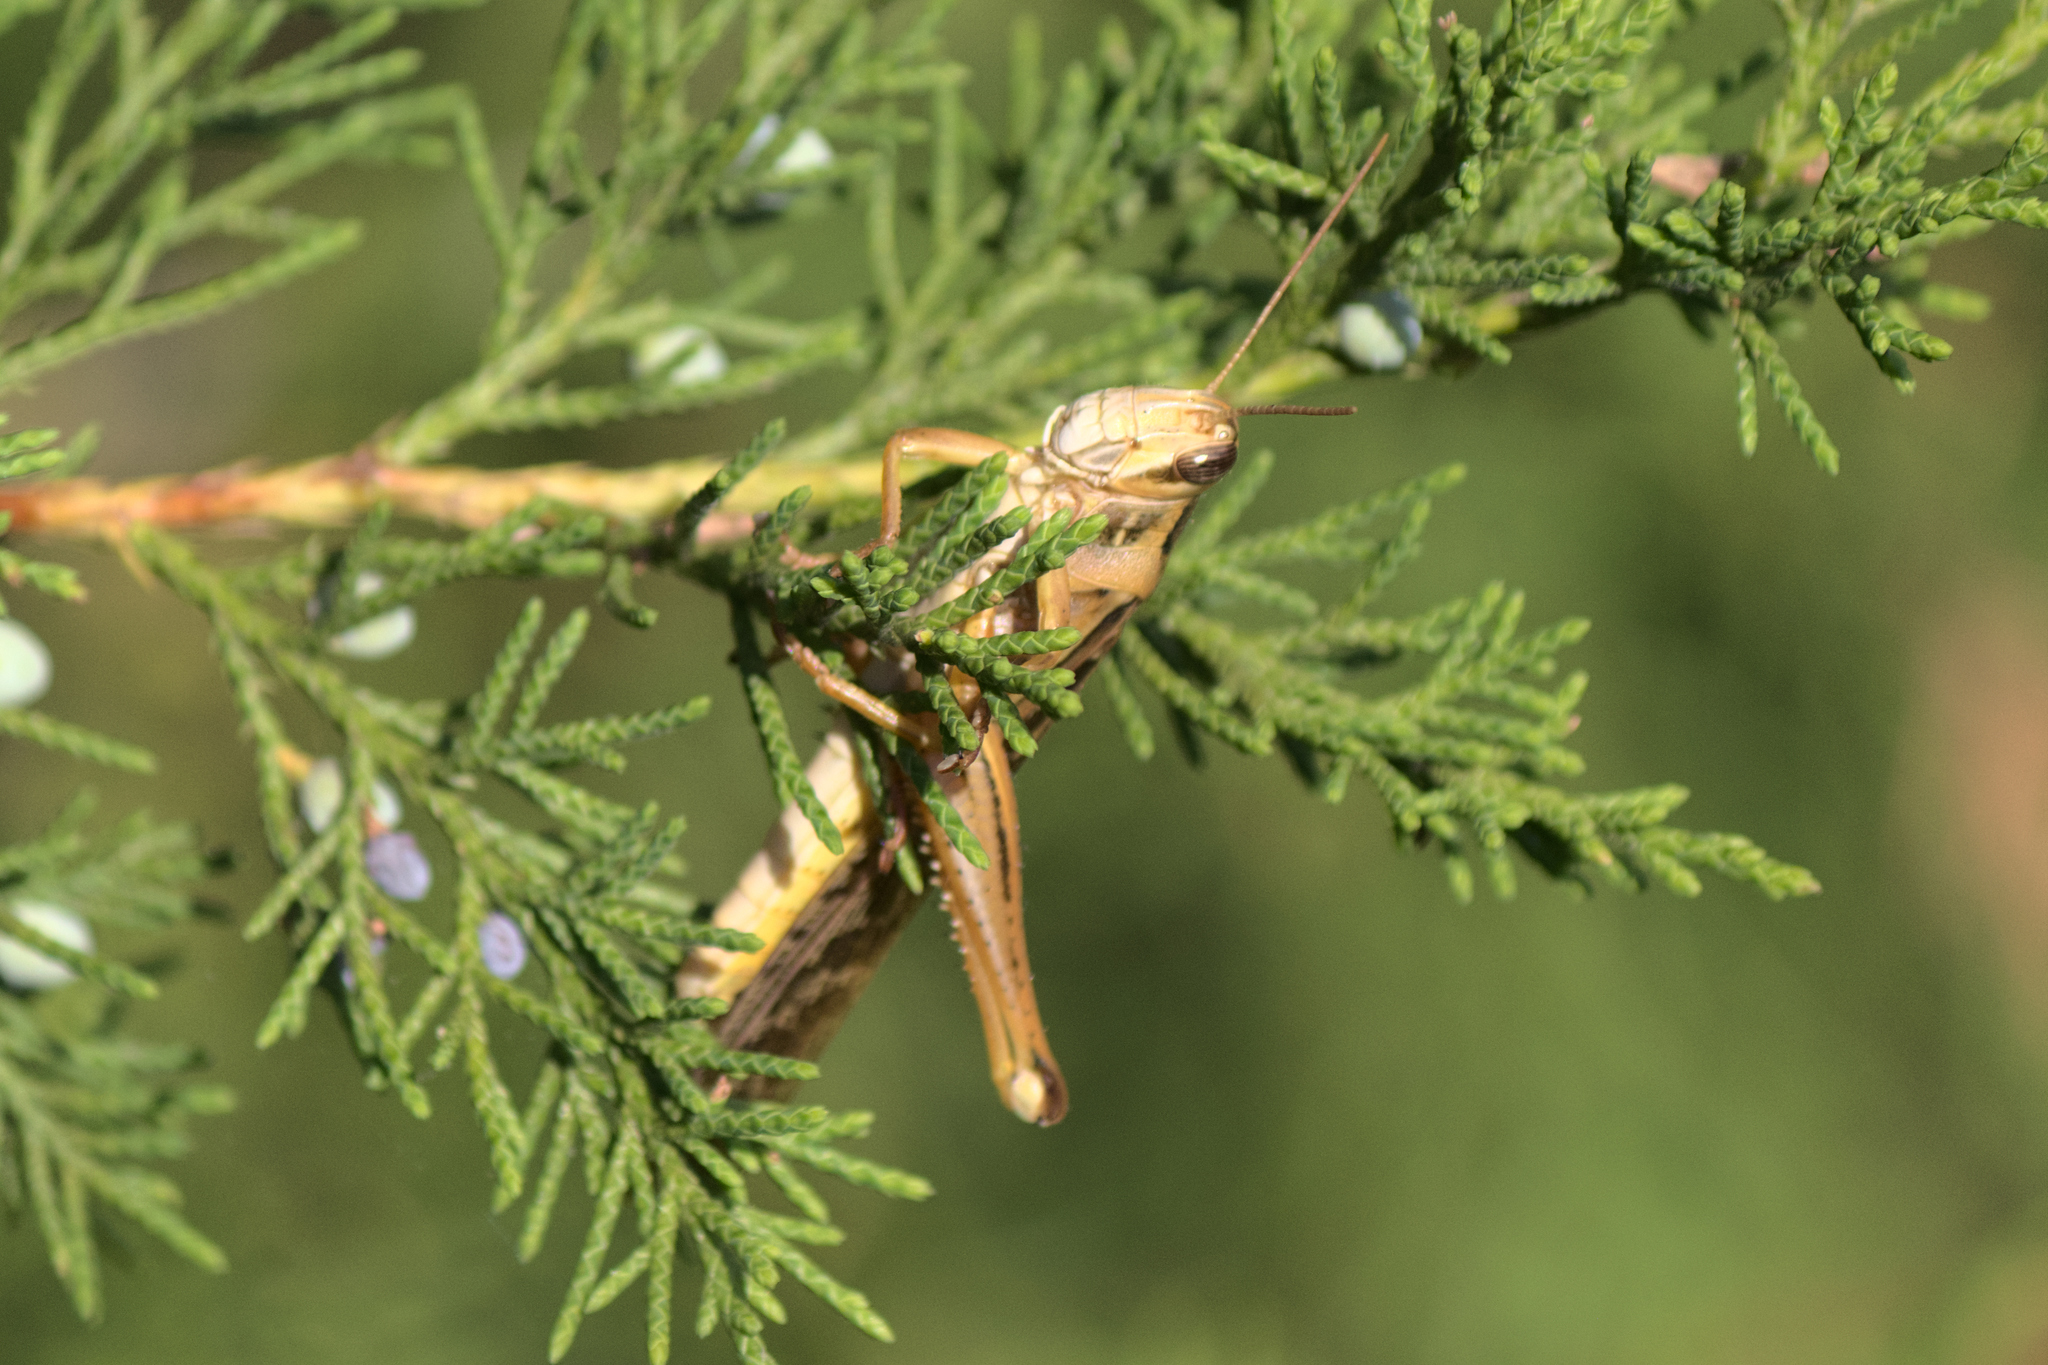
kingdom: Animalia
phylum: Arthropoda
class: Insecta
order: Orthoptera
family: Acrididae
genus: Schistocerca
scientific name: Schistocerca americana
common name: American bird locust
